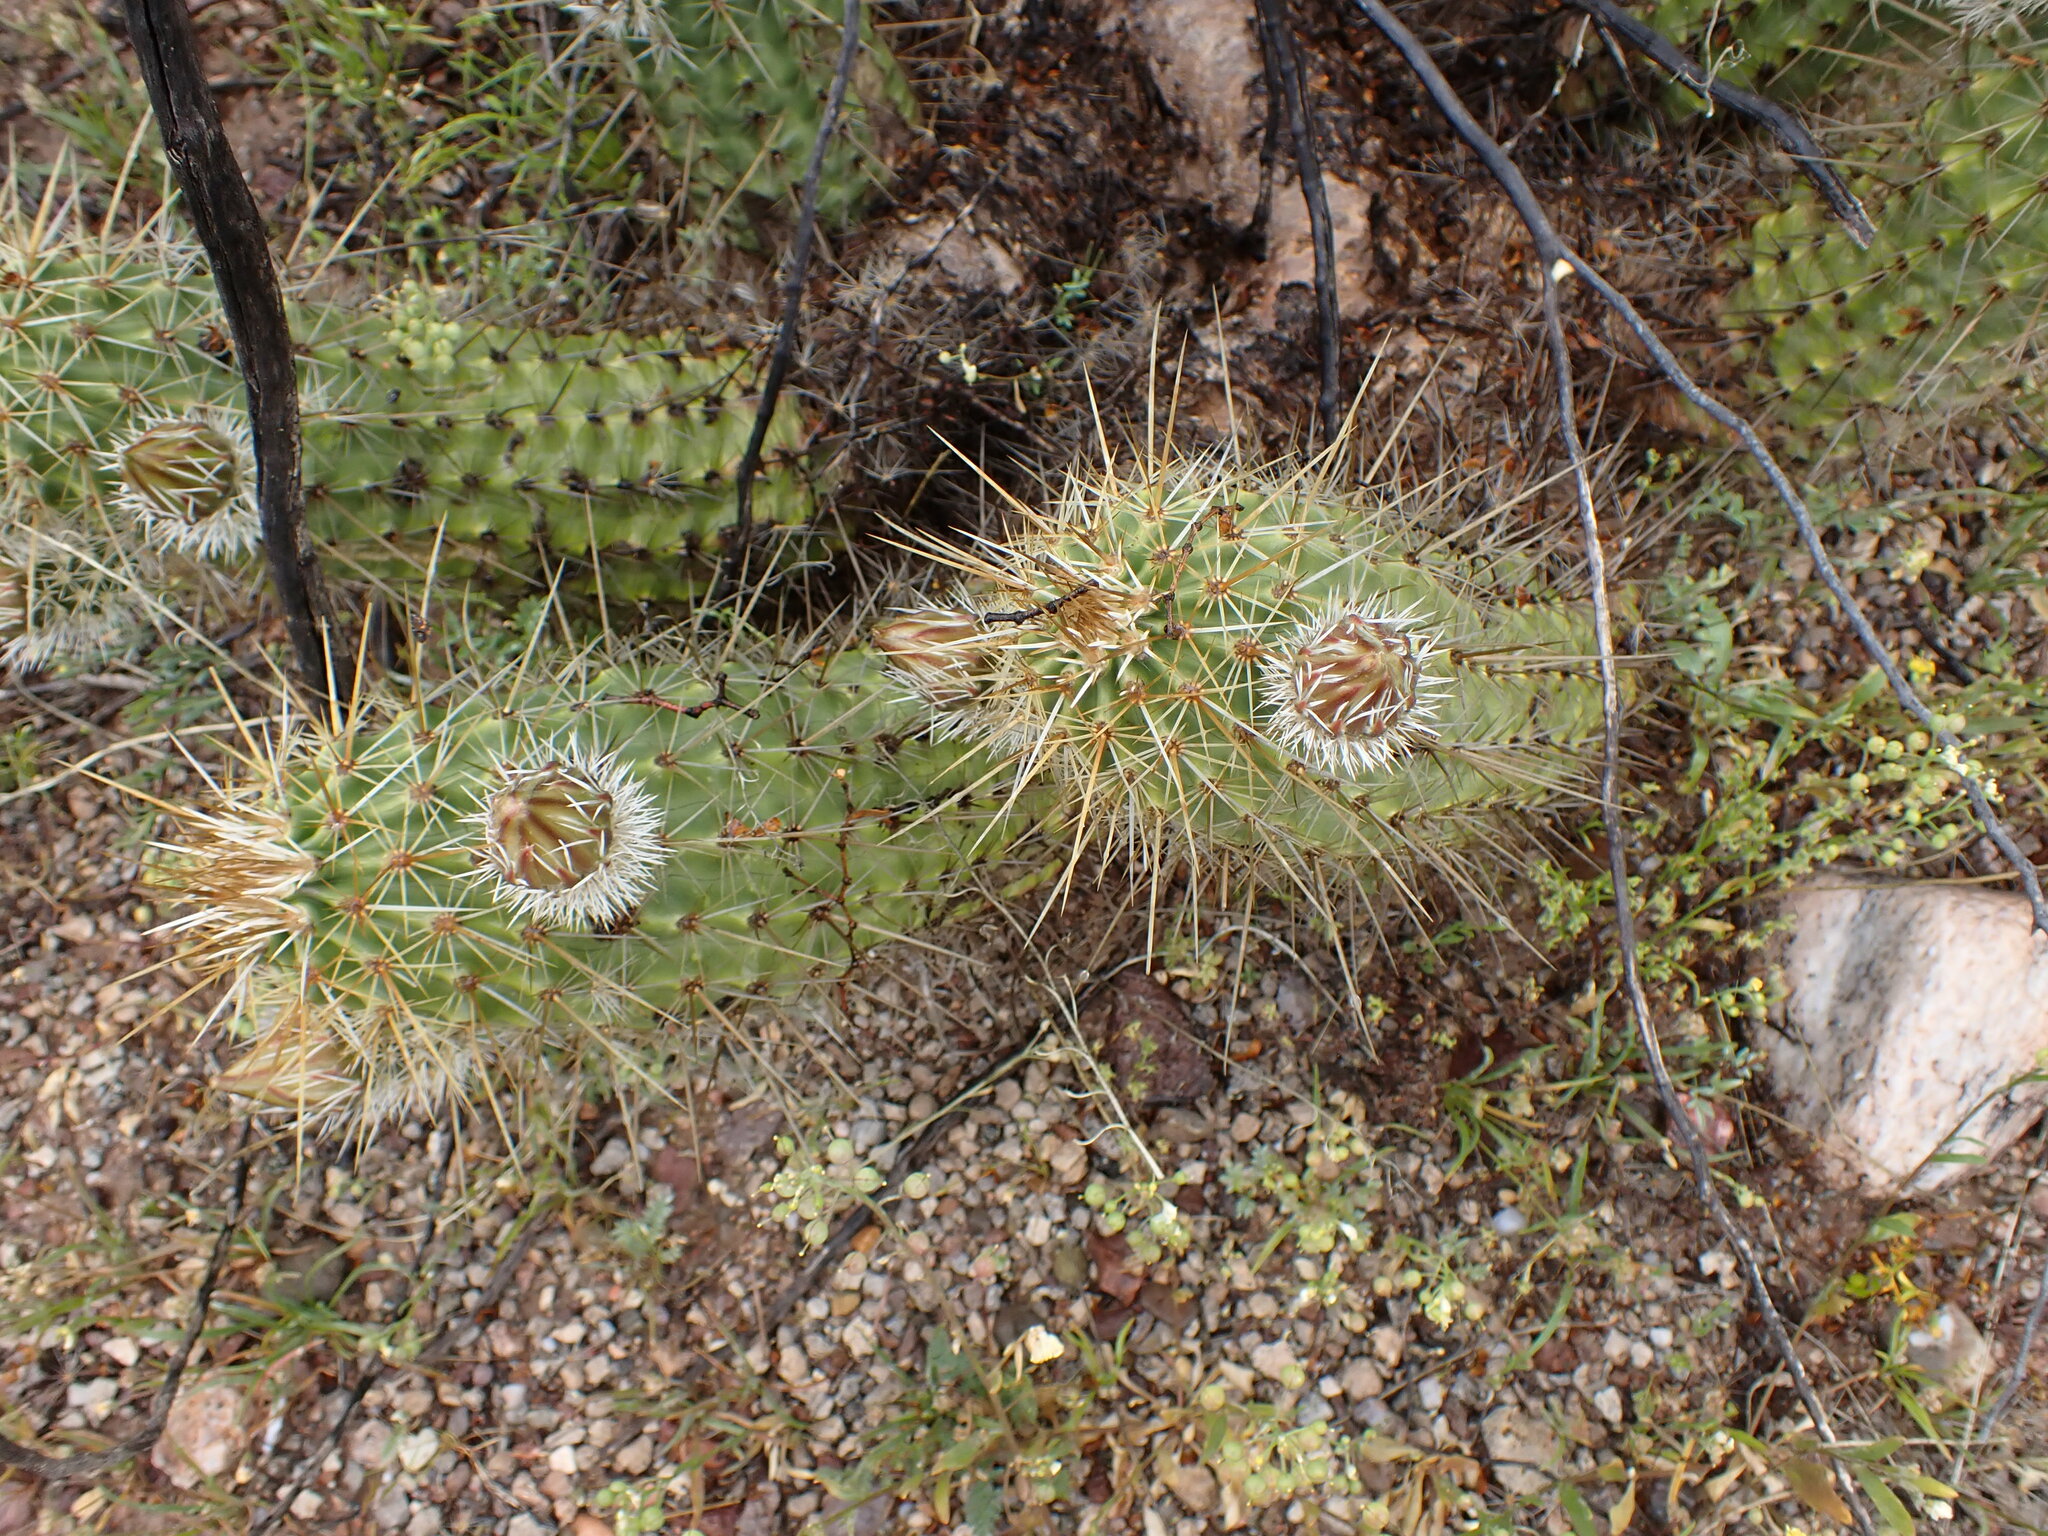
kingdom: Plantae
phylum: Tracheophyta
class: Magnoliopsida
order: Caryophyllales
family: Cactaceae
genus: Echinocereus
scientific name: Echinocereus fasciculatus
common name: Bundle hedgehog
